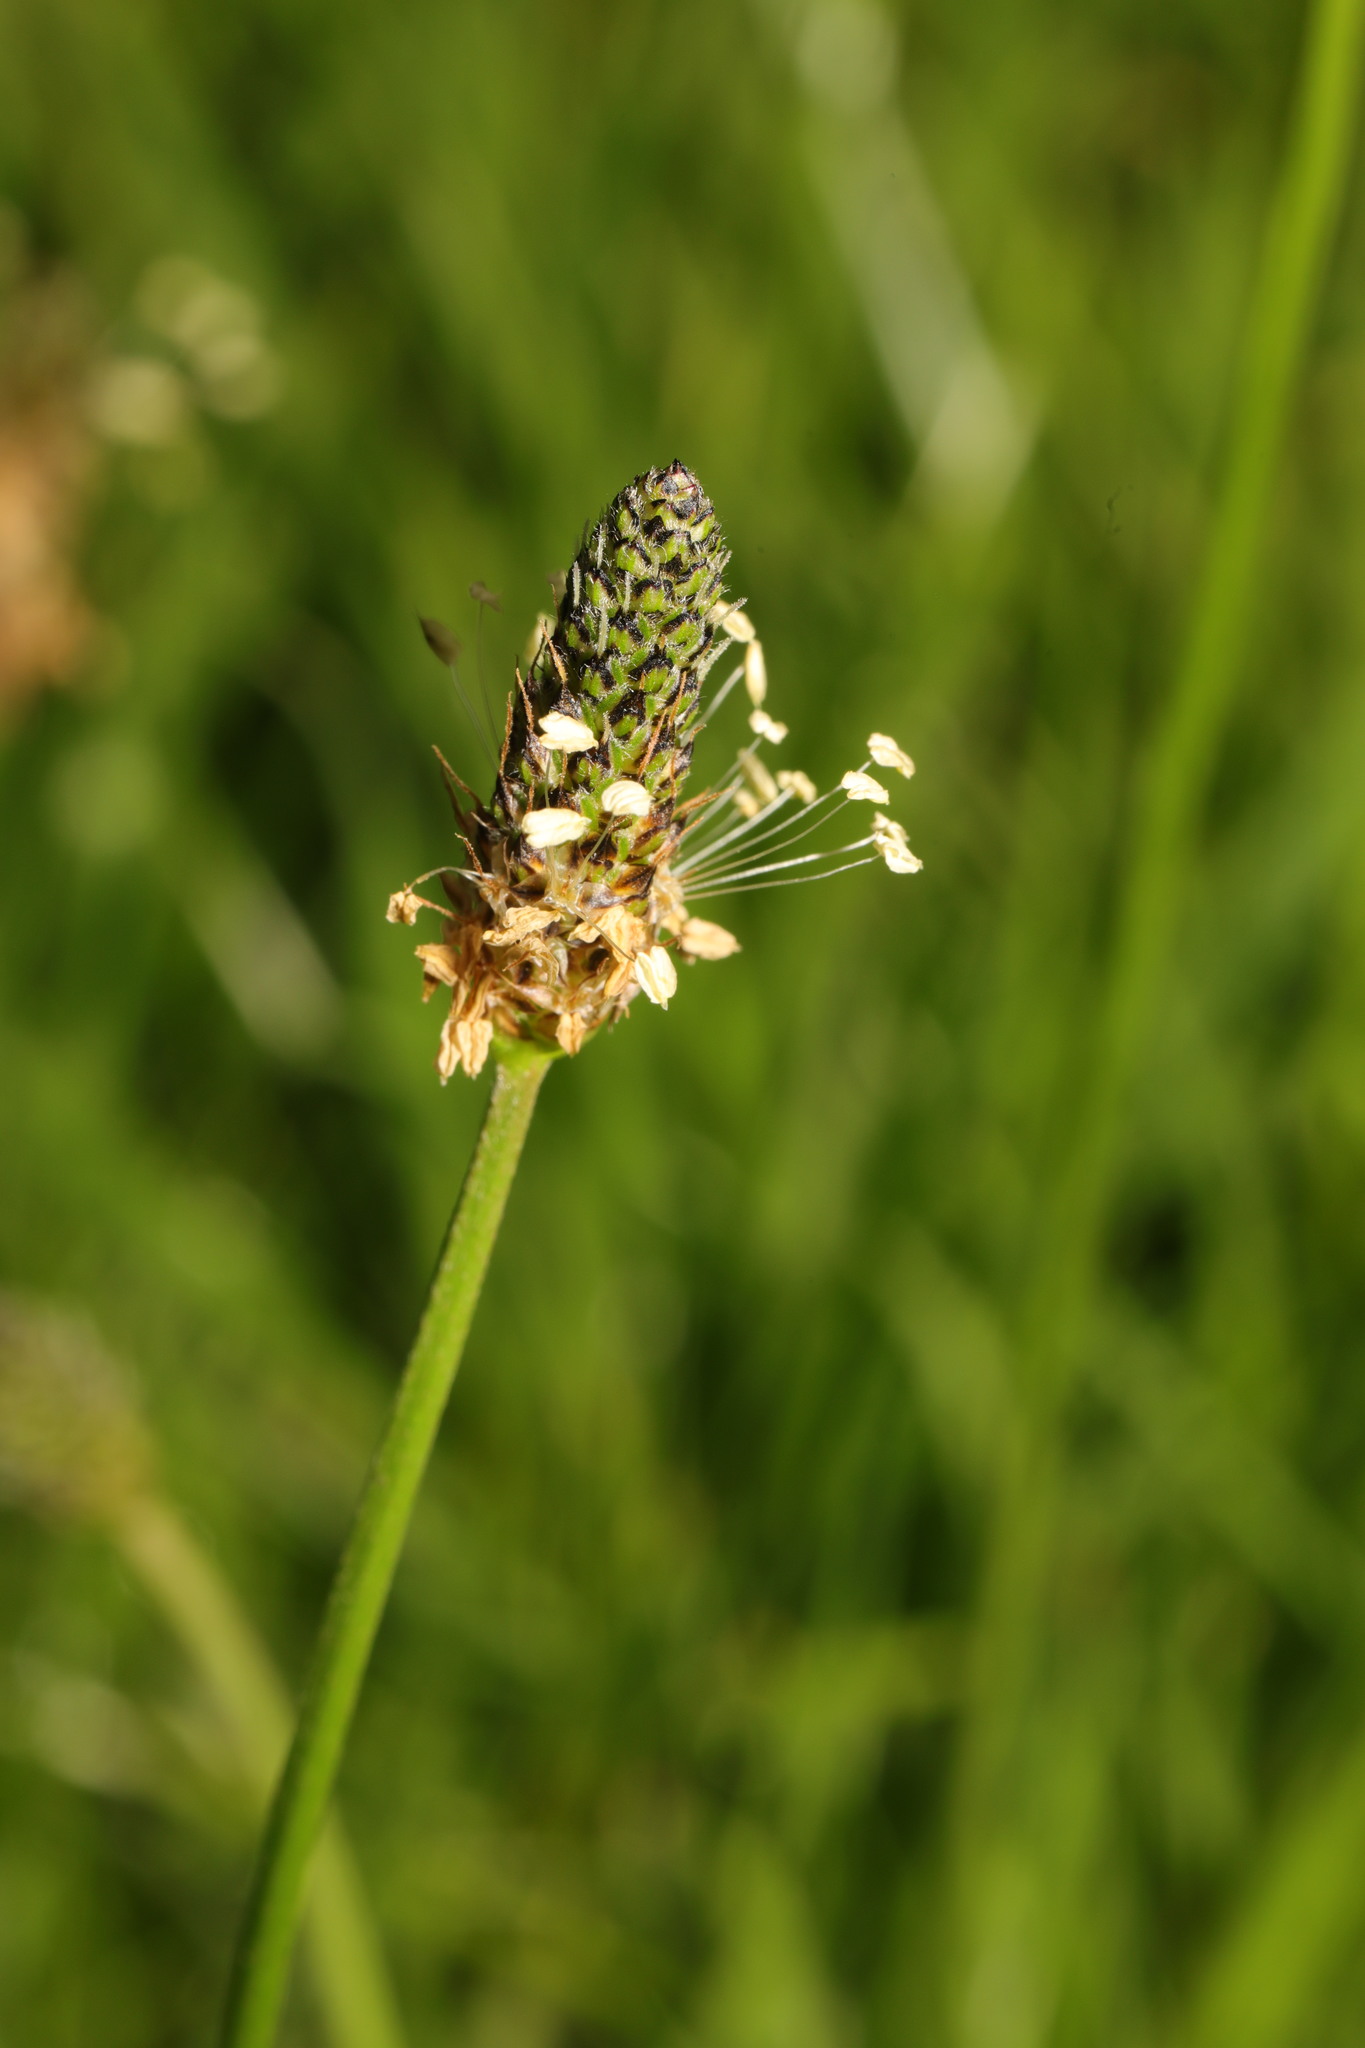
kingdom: Plantae
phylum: Tracheophyta
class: Magnoliopsida
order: Lamiales
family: Plantaginaceae
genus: Plantago
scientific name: Plantago lanceolata
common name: Ribwort plantain
